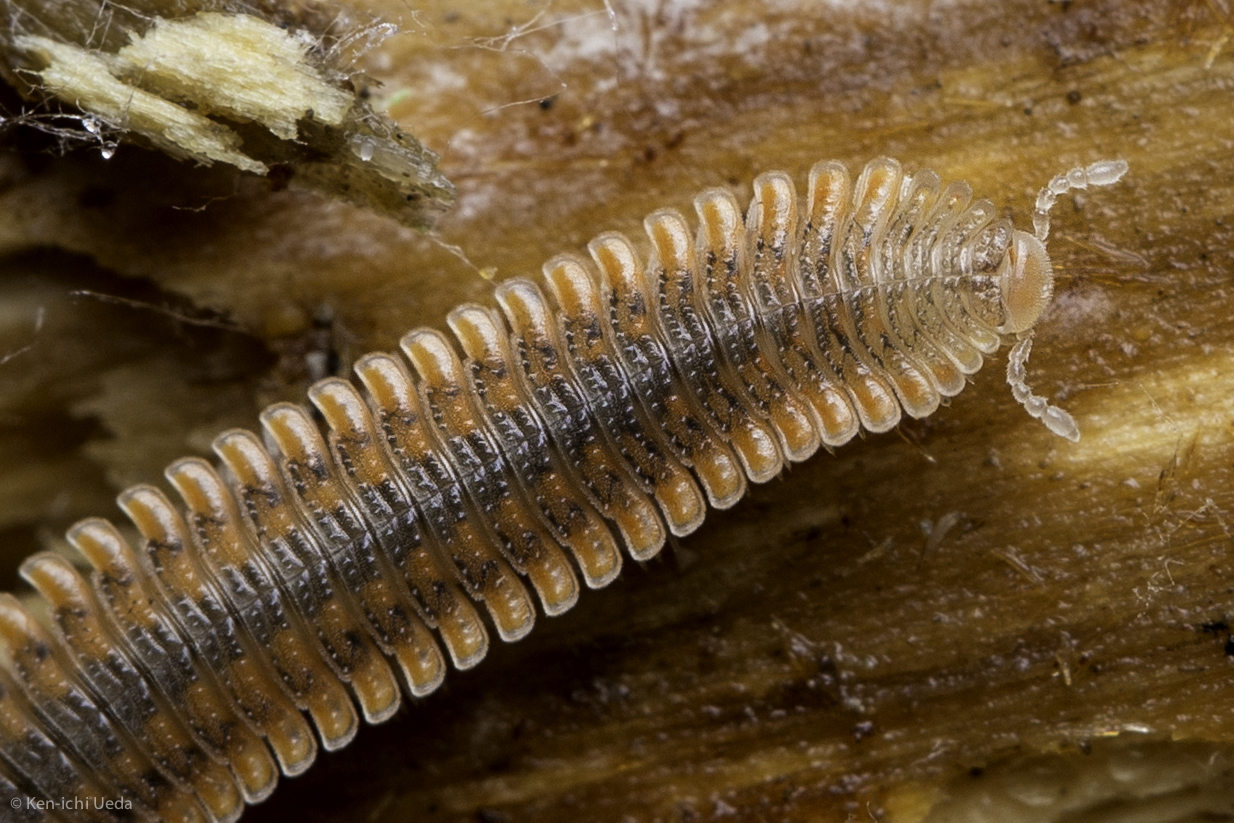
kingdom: Animalia
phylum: Arthropoda
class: Diplopoda
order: Platydesmida
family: Andrognathidae
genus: Brachycybe
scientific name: Brachycybe producta
